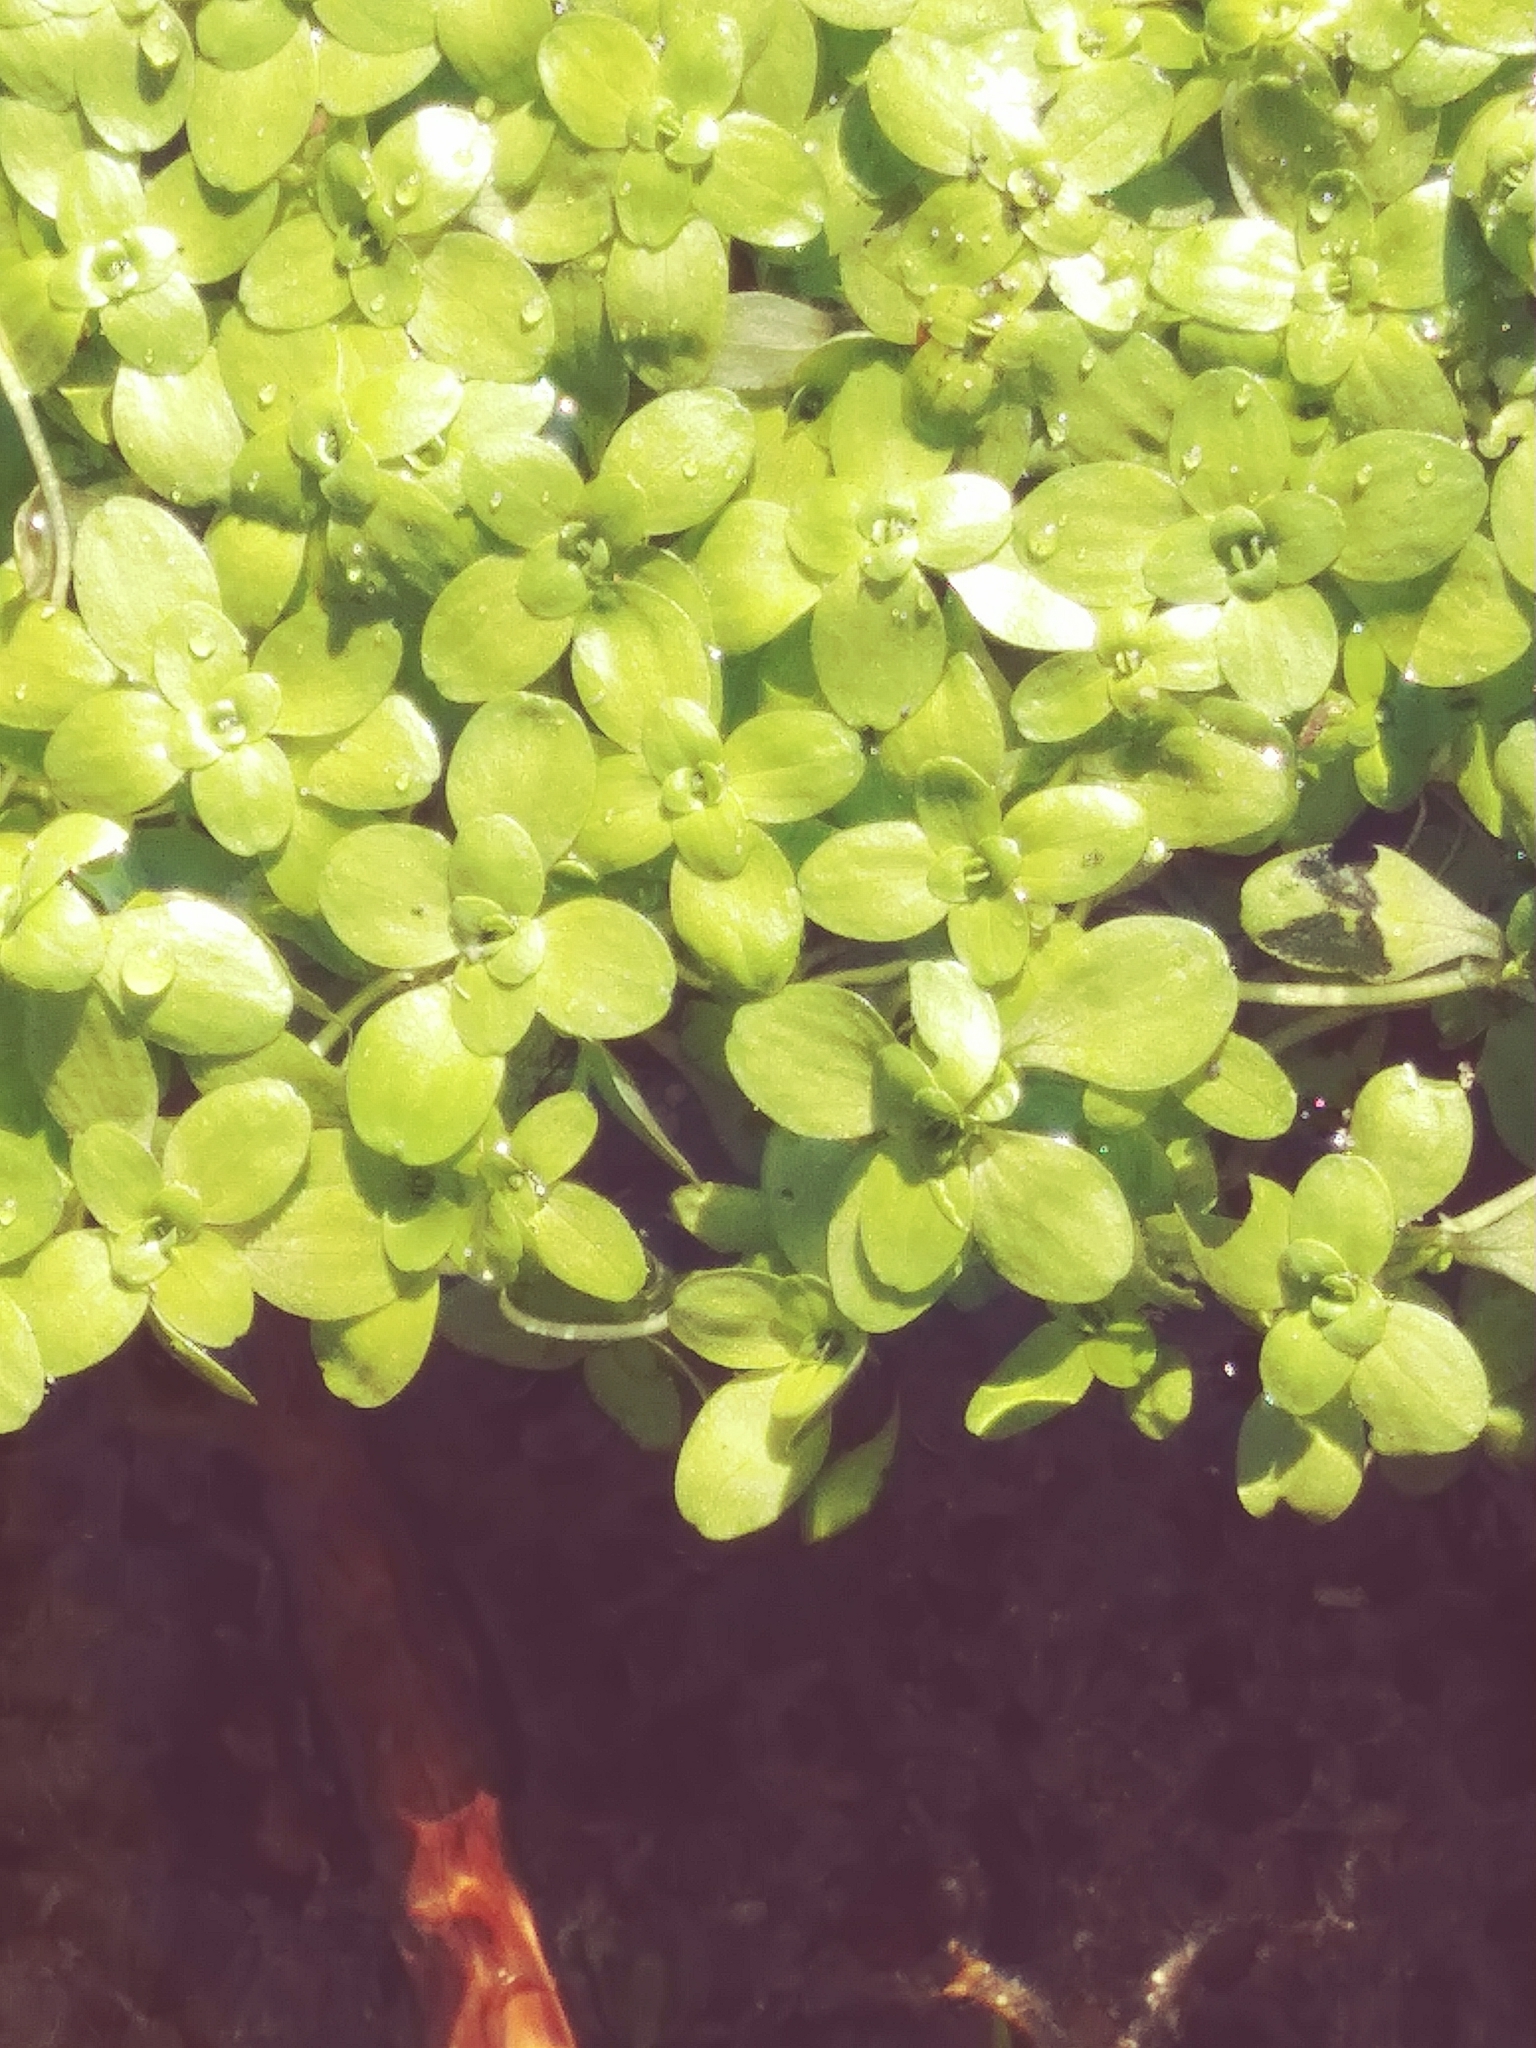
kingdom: Plantae
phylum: Tracheophyta
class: Magnoliopsida
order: Lamiales
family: Plantaginaceae
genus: Callitriche
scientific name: Callitriche stagnalis
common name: Common water-starwort
